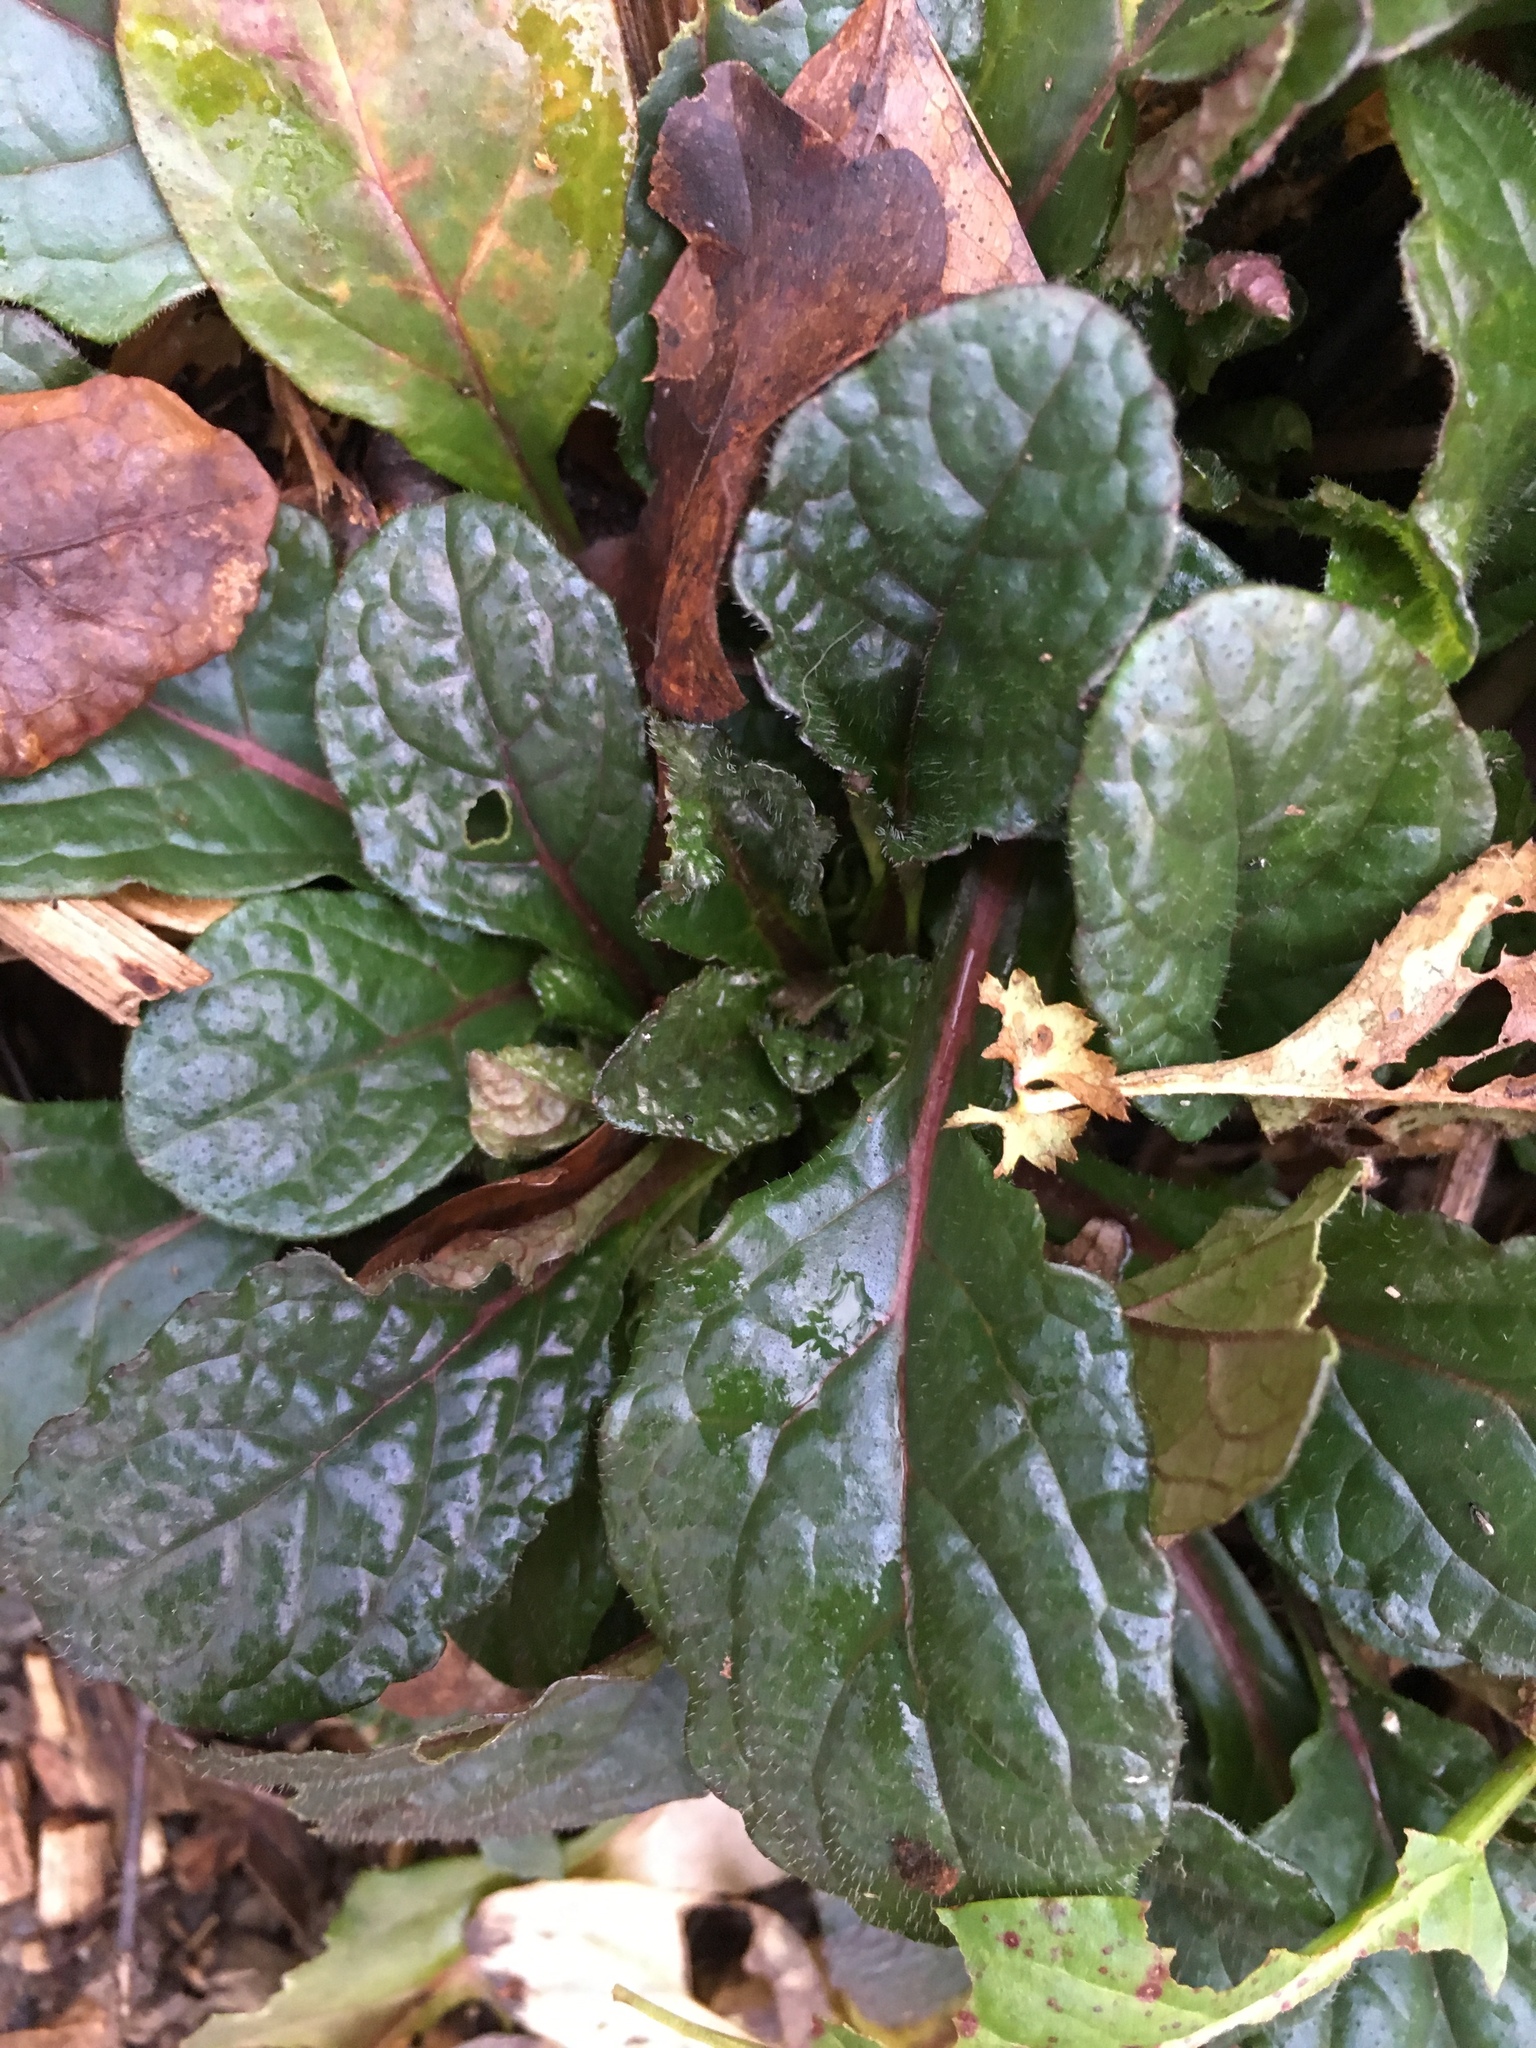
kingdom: Plantae
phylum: Tracheophyta
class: Magnoliopsida
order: Lamiales
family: Lamiaceae
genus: Ajuga
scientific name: Ajuga reptans
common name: Bugle
